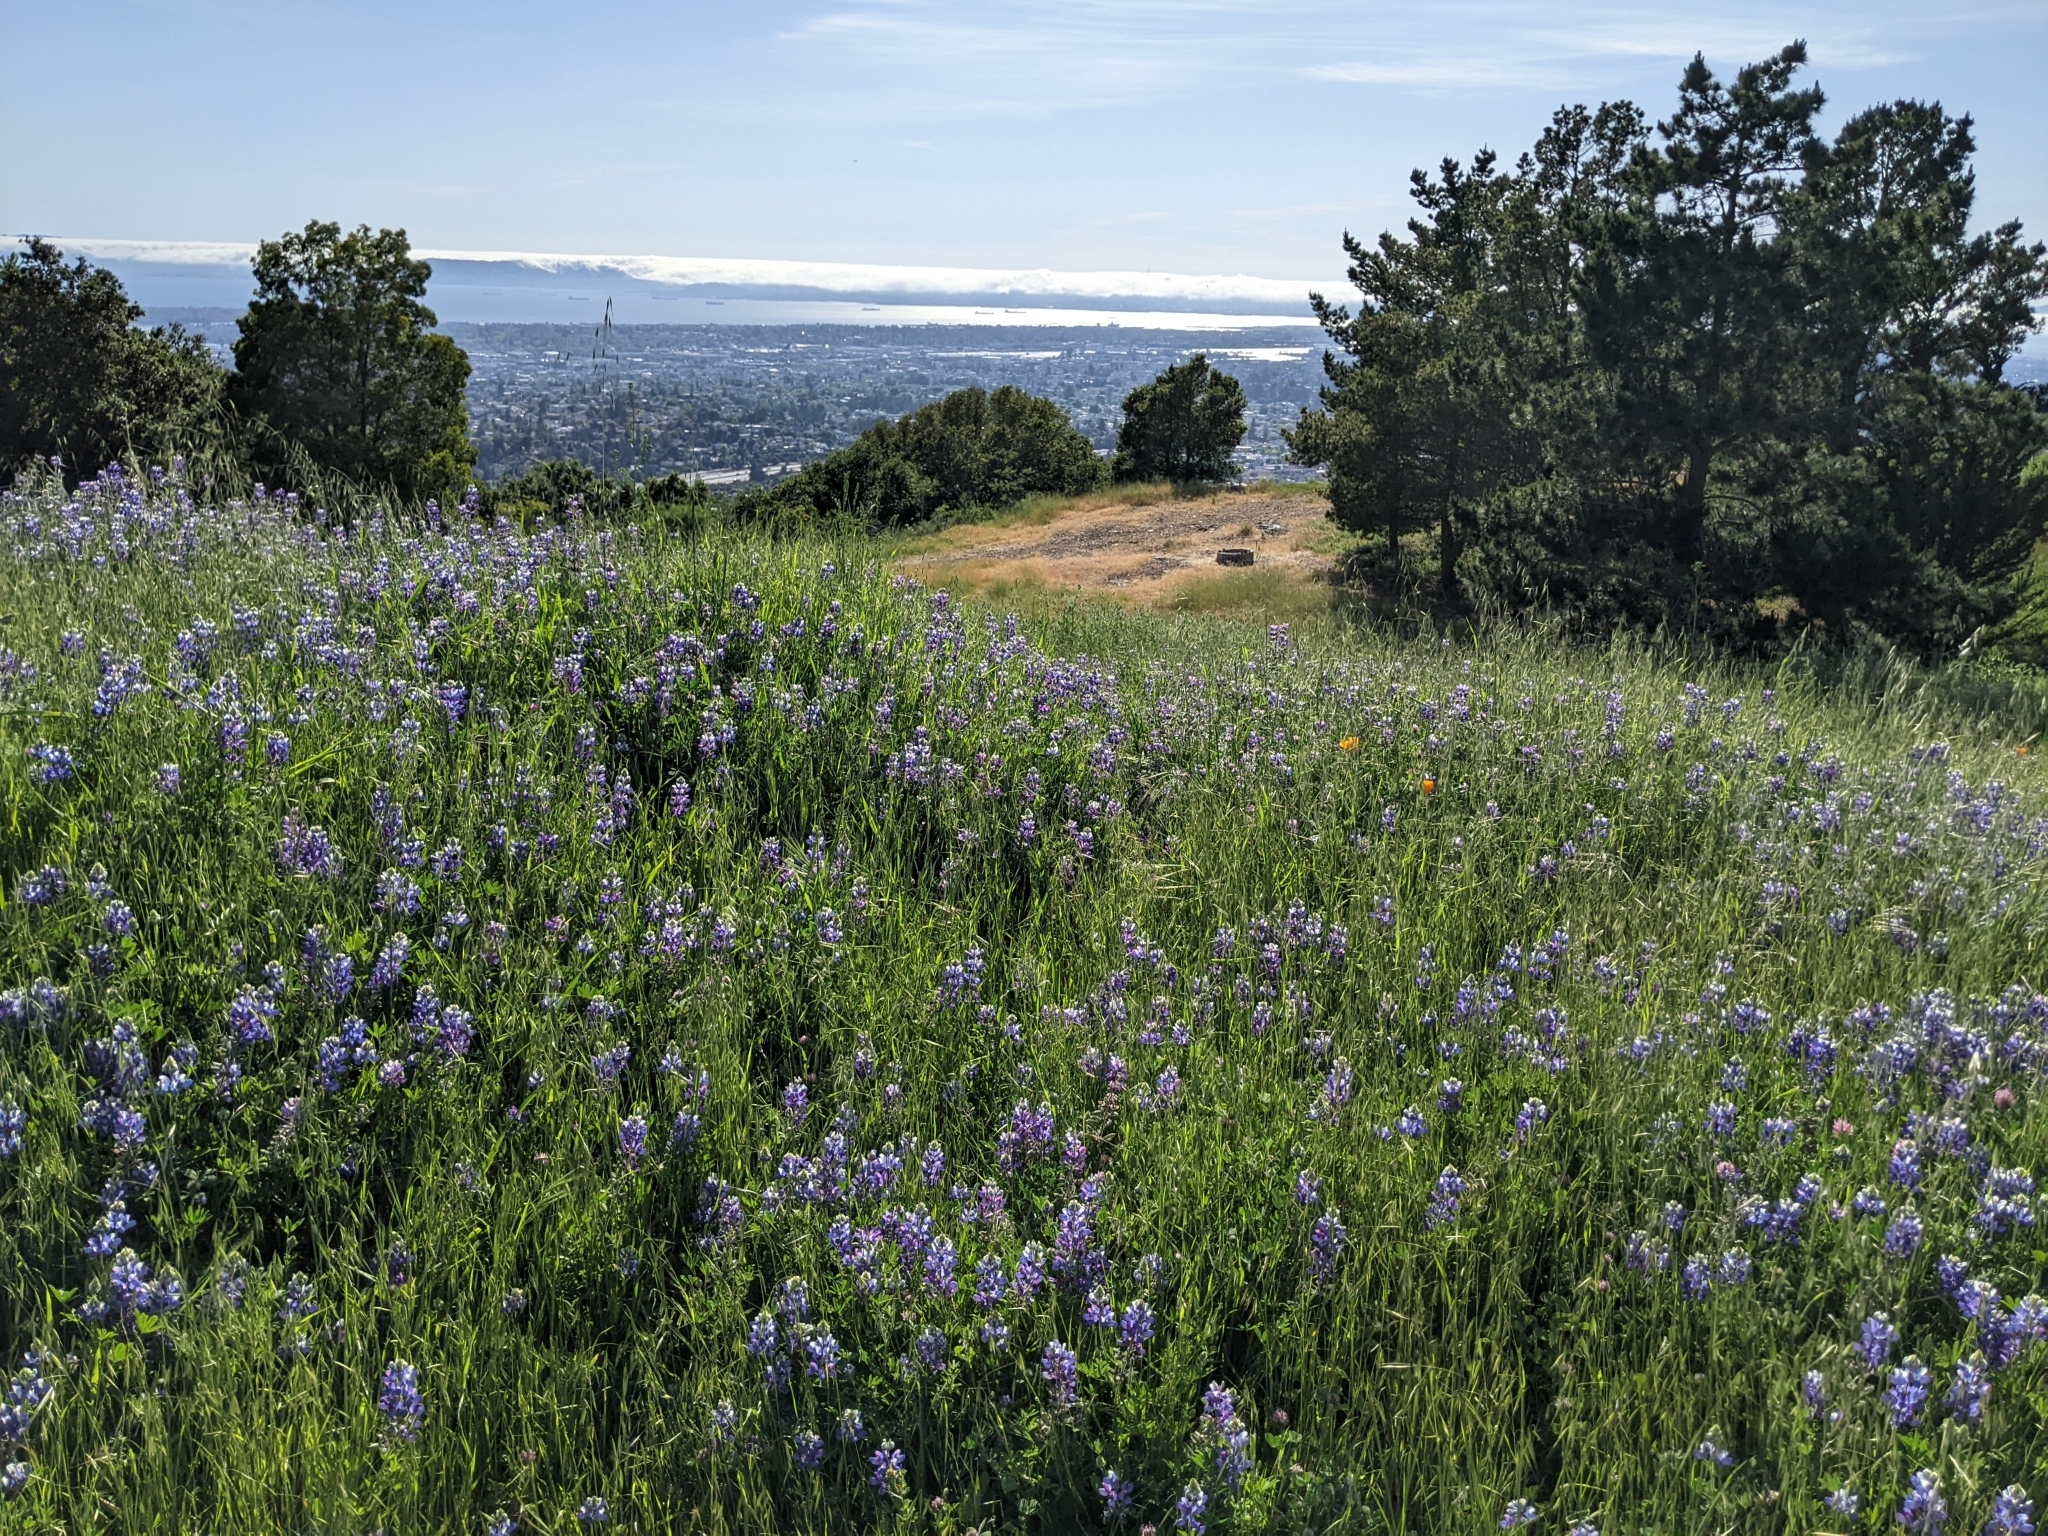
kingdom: Plantae
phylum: Tracheophyta
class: Magnoliopsida
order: Fabales
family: Fabaceae
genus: Lupinus
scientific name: Lupinus nanus
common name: Orean blue lupin
